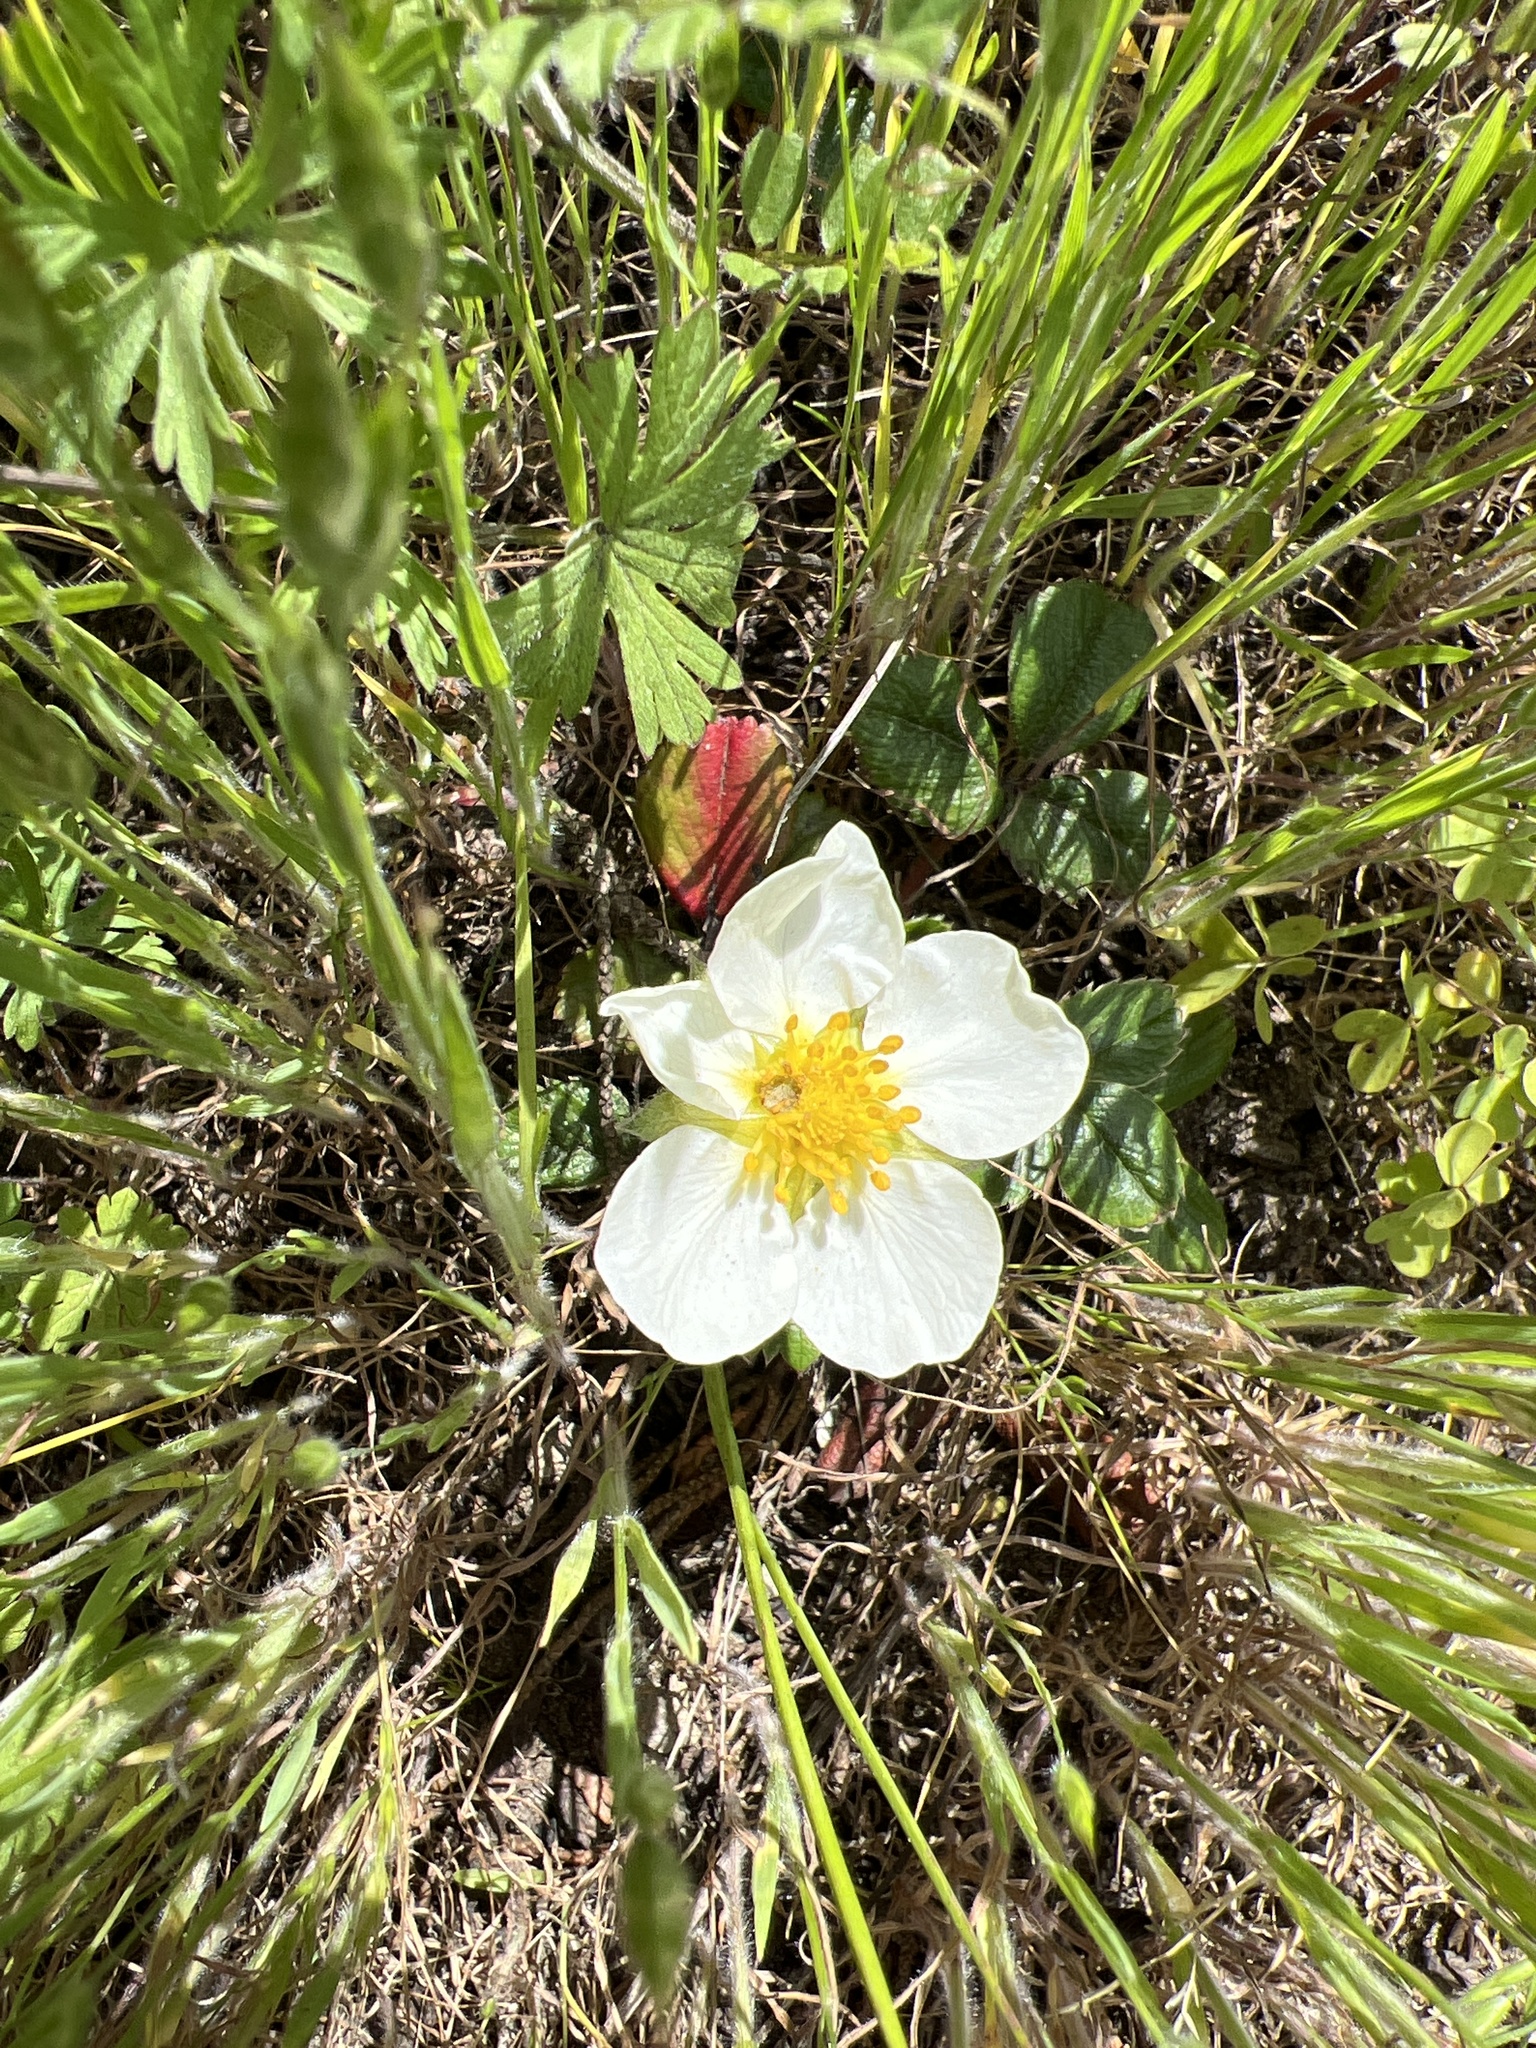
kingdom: Plantae
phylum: Tracheophyta
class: Magnoliopsida
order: Rosales
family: Rosaceae
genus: Fragaria
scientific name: Fragaria chiloensis
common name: Beach strawberry
